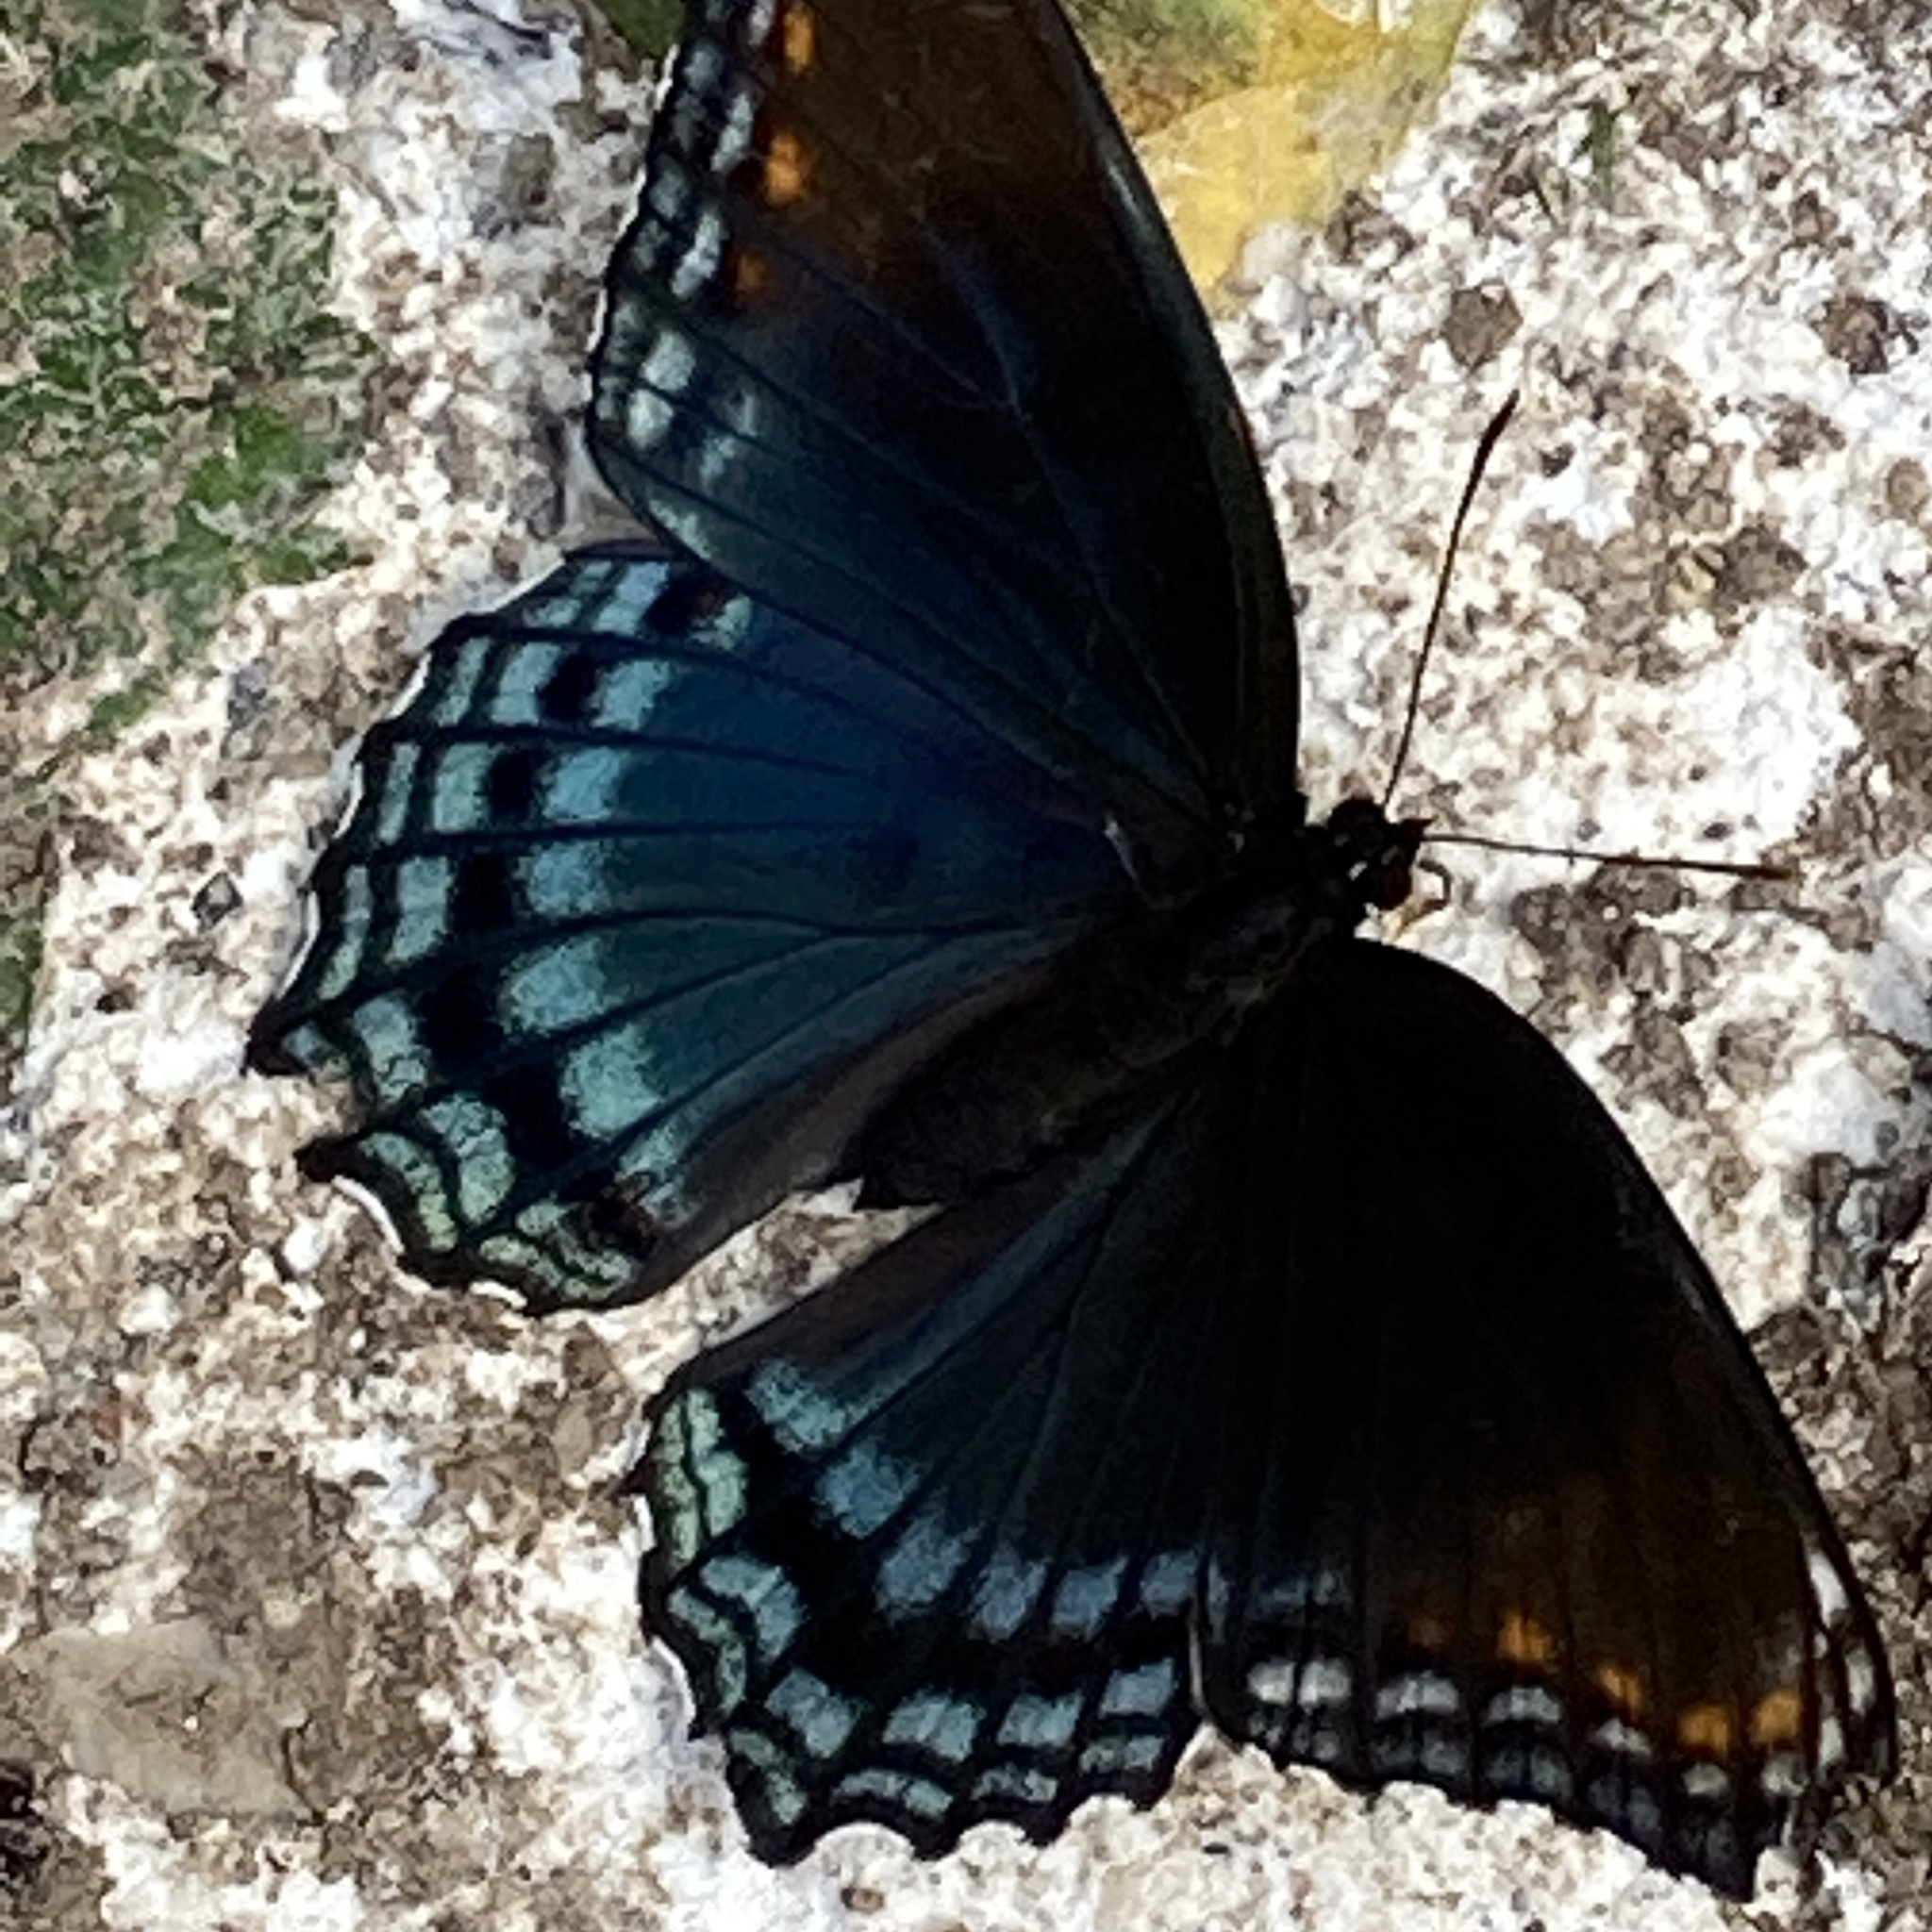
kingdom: Animalia
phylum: Arthropoda
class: Insecta
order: Lepidoptera
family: Nymphalidae
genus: Limenitis
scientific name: Limenitis astyanax
